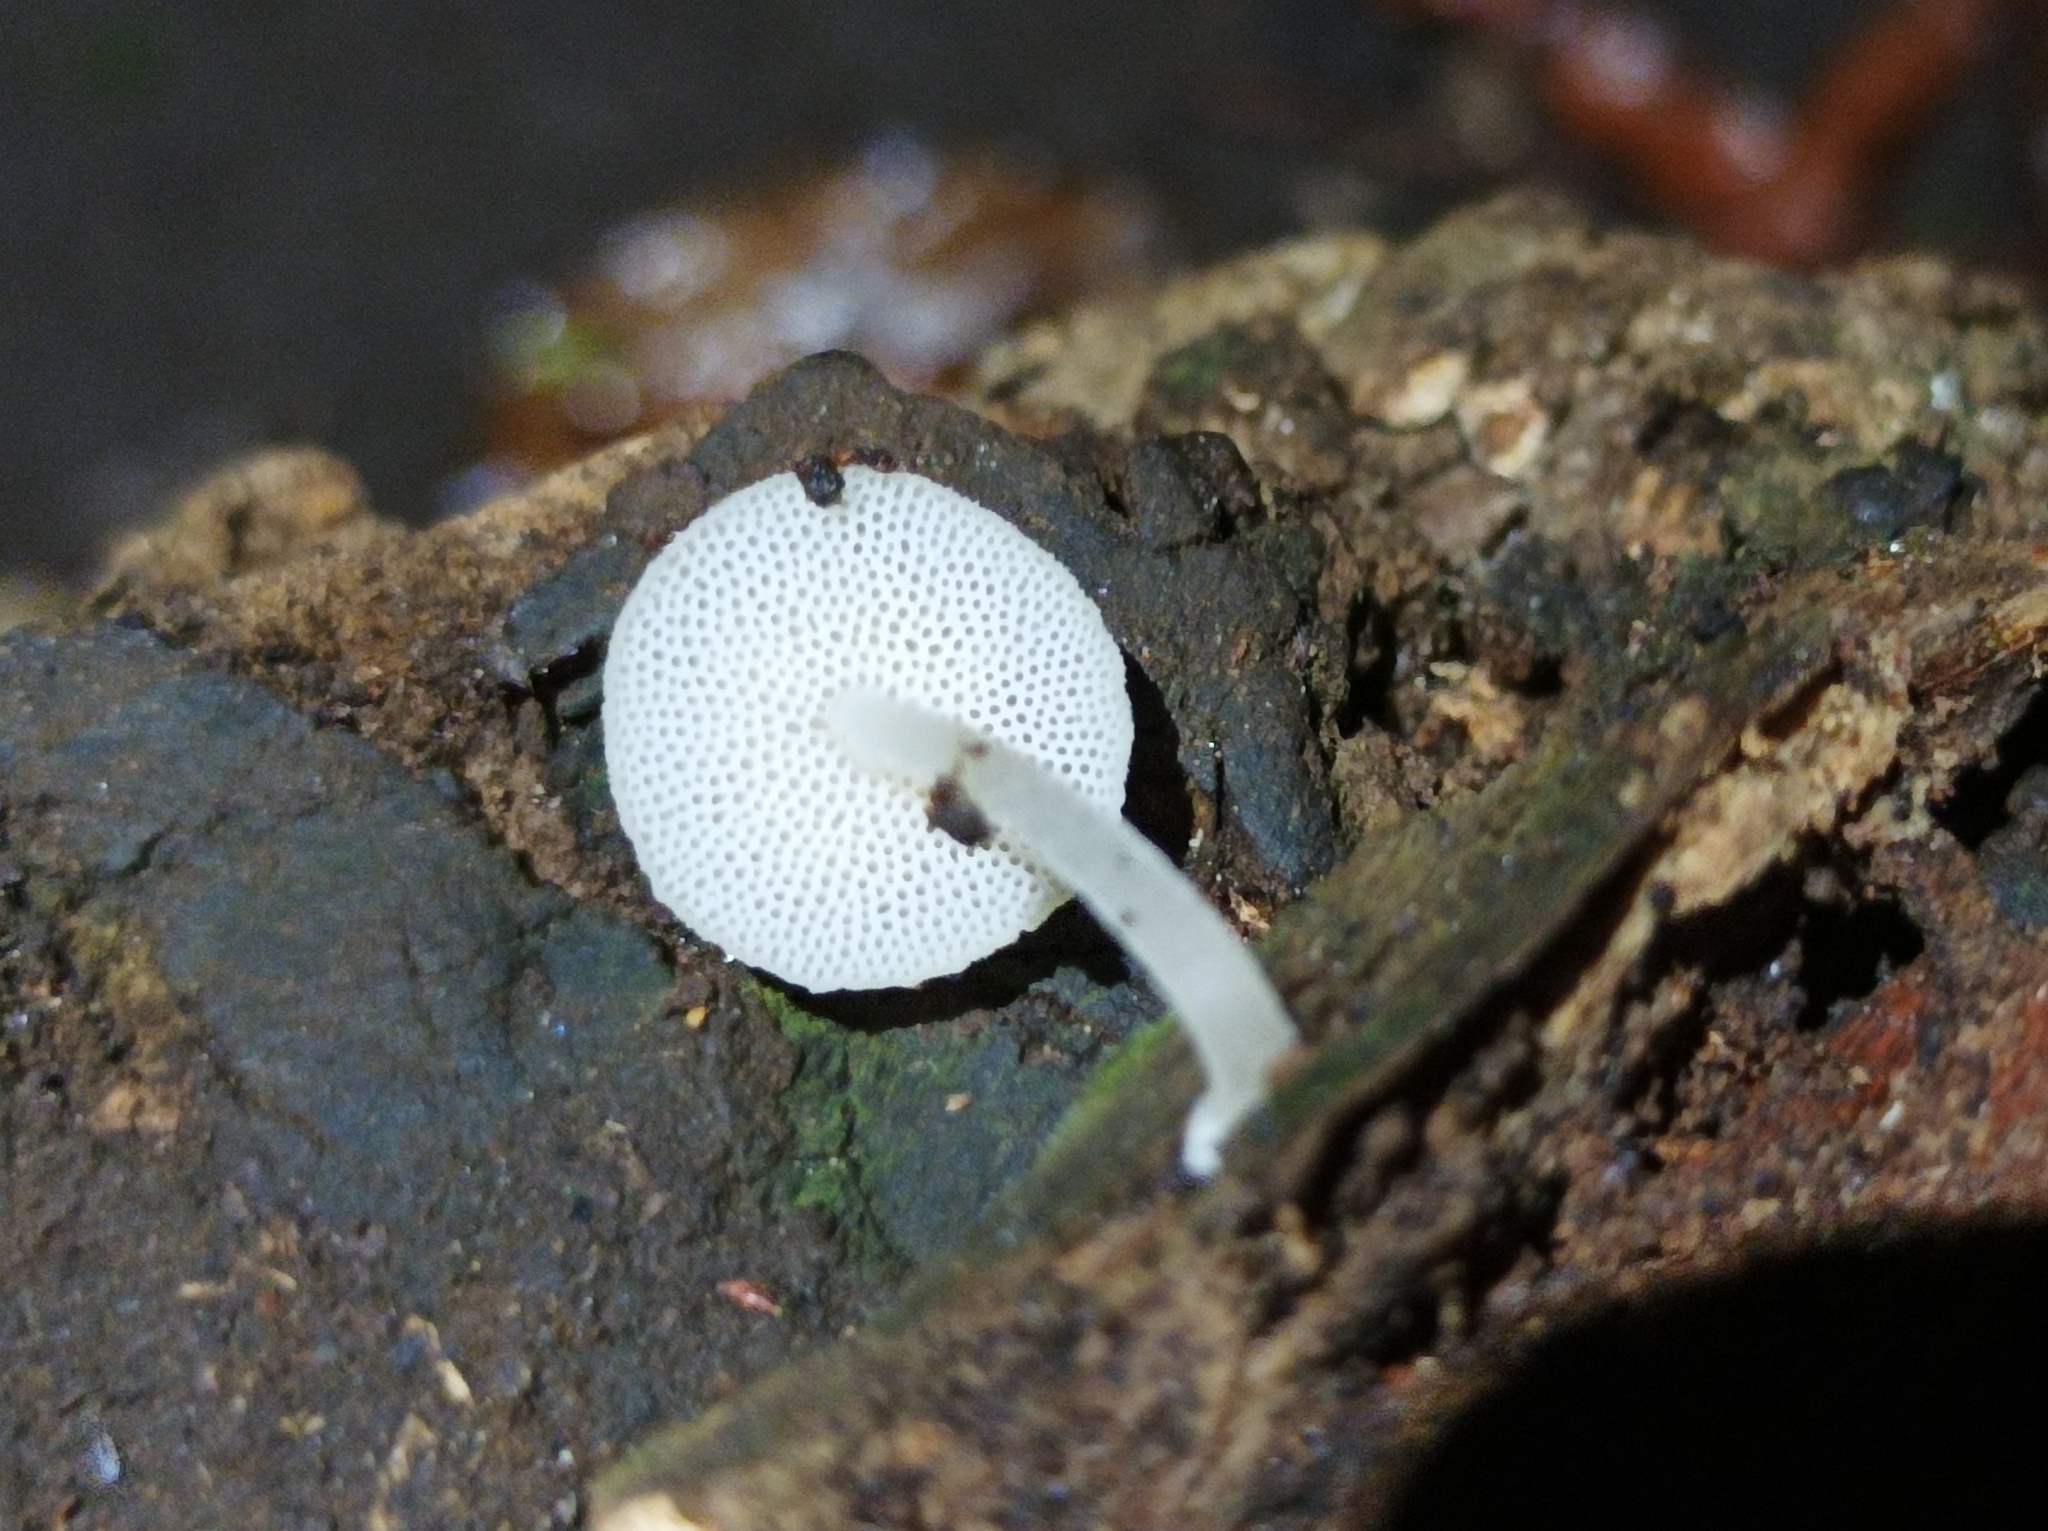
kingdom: Fungi
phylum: Basidiomycota
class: Agaricomycetes
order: Agaricales
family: Mycenaceae
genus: Filoboletus
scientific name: Filoboletus manipularis
